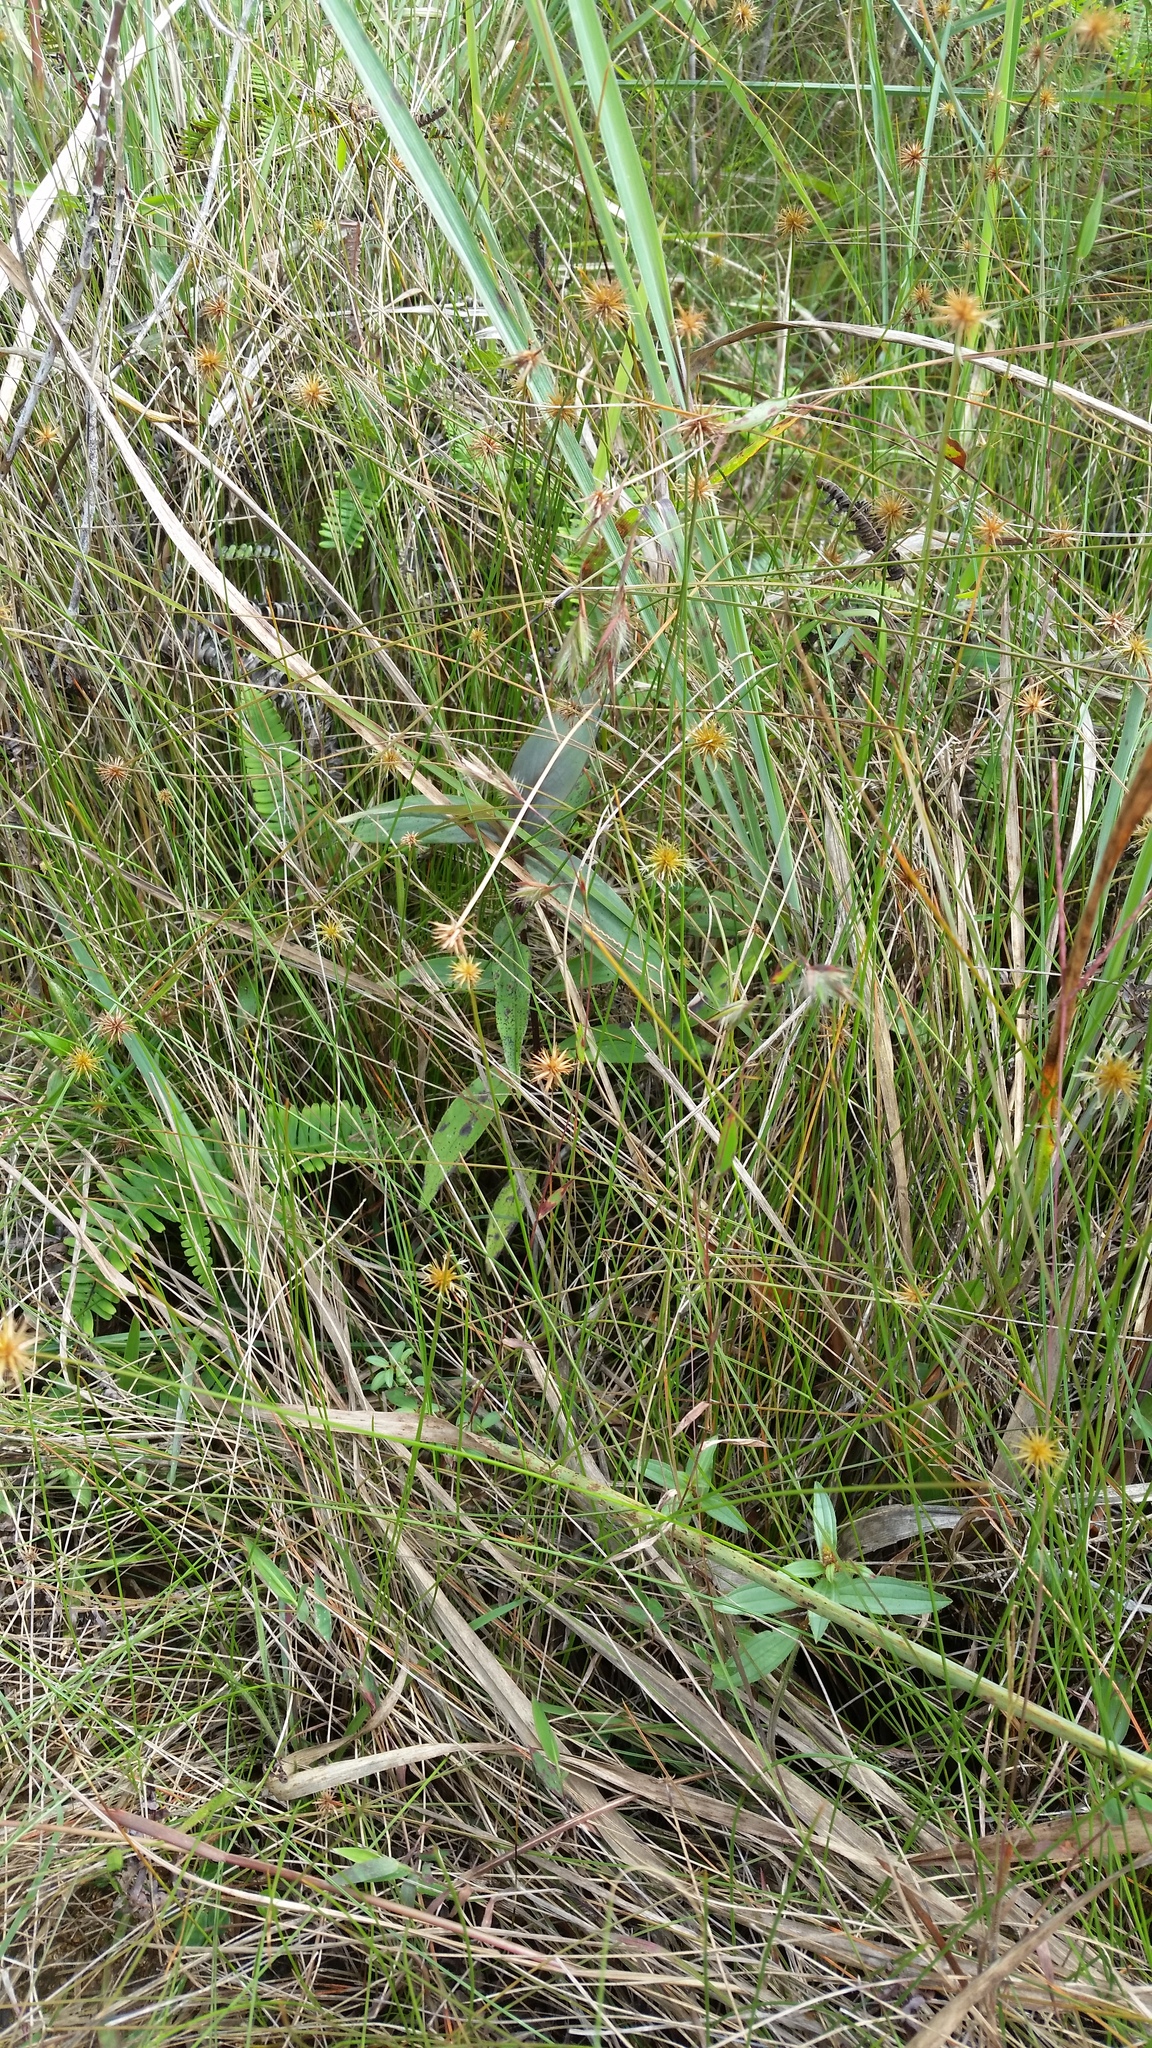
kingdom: Plantae
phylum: Tracheophyta
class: Liliopsida
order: Poales
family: Cyperaceae
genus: Actinoschoenus
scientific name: Actinoschoenus aphyllus
